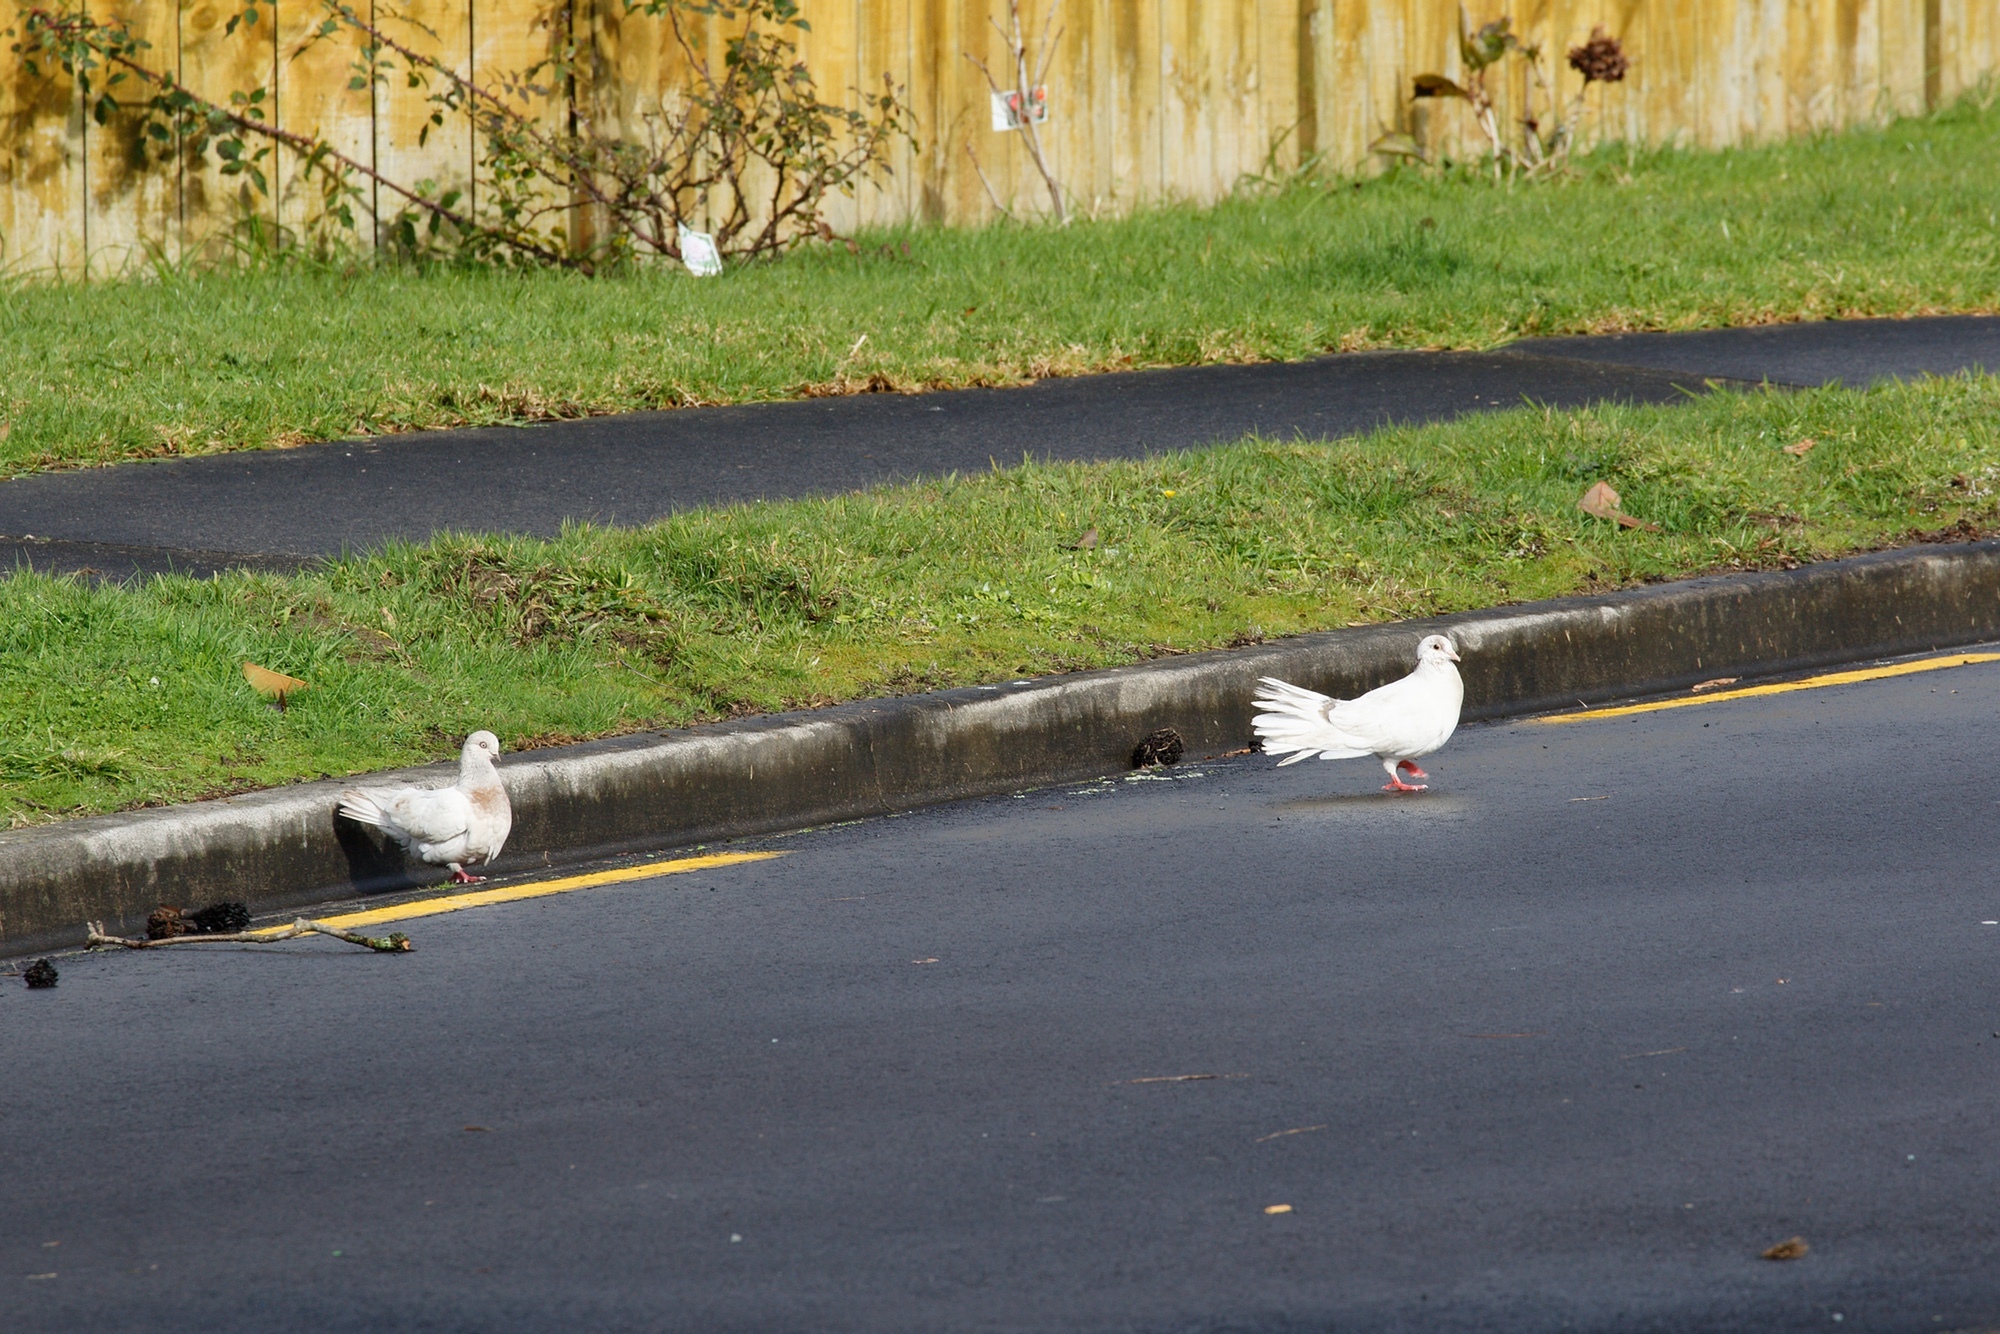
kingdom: Animalia
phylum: Chordata
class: Aves
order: Columbiformes
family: Columbidae
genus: Columba
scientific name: Columba livia
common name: Rock pigeon
